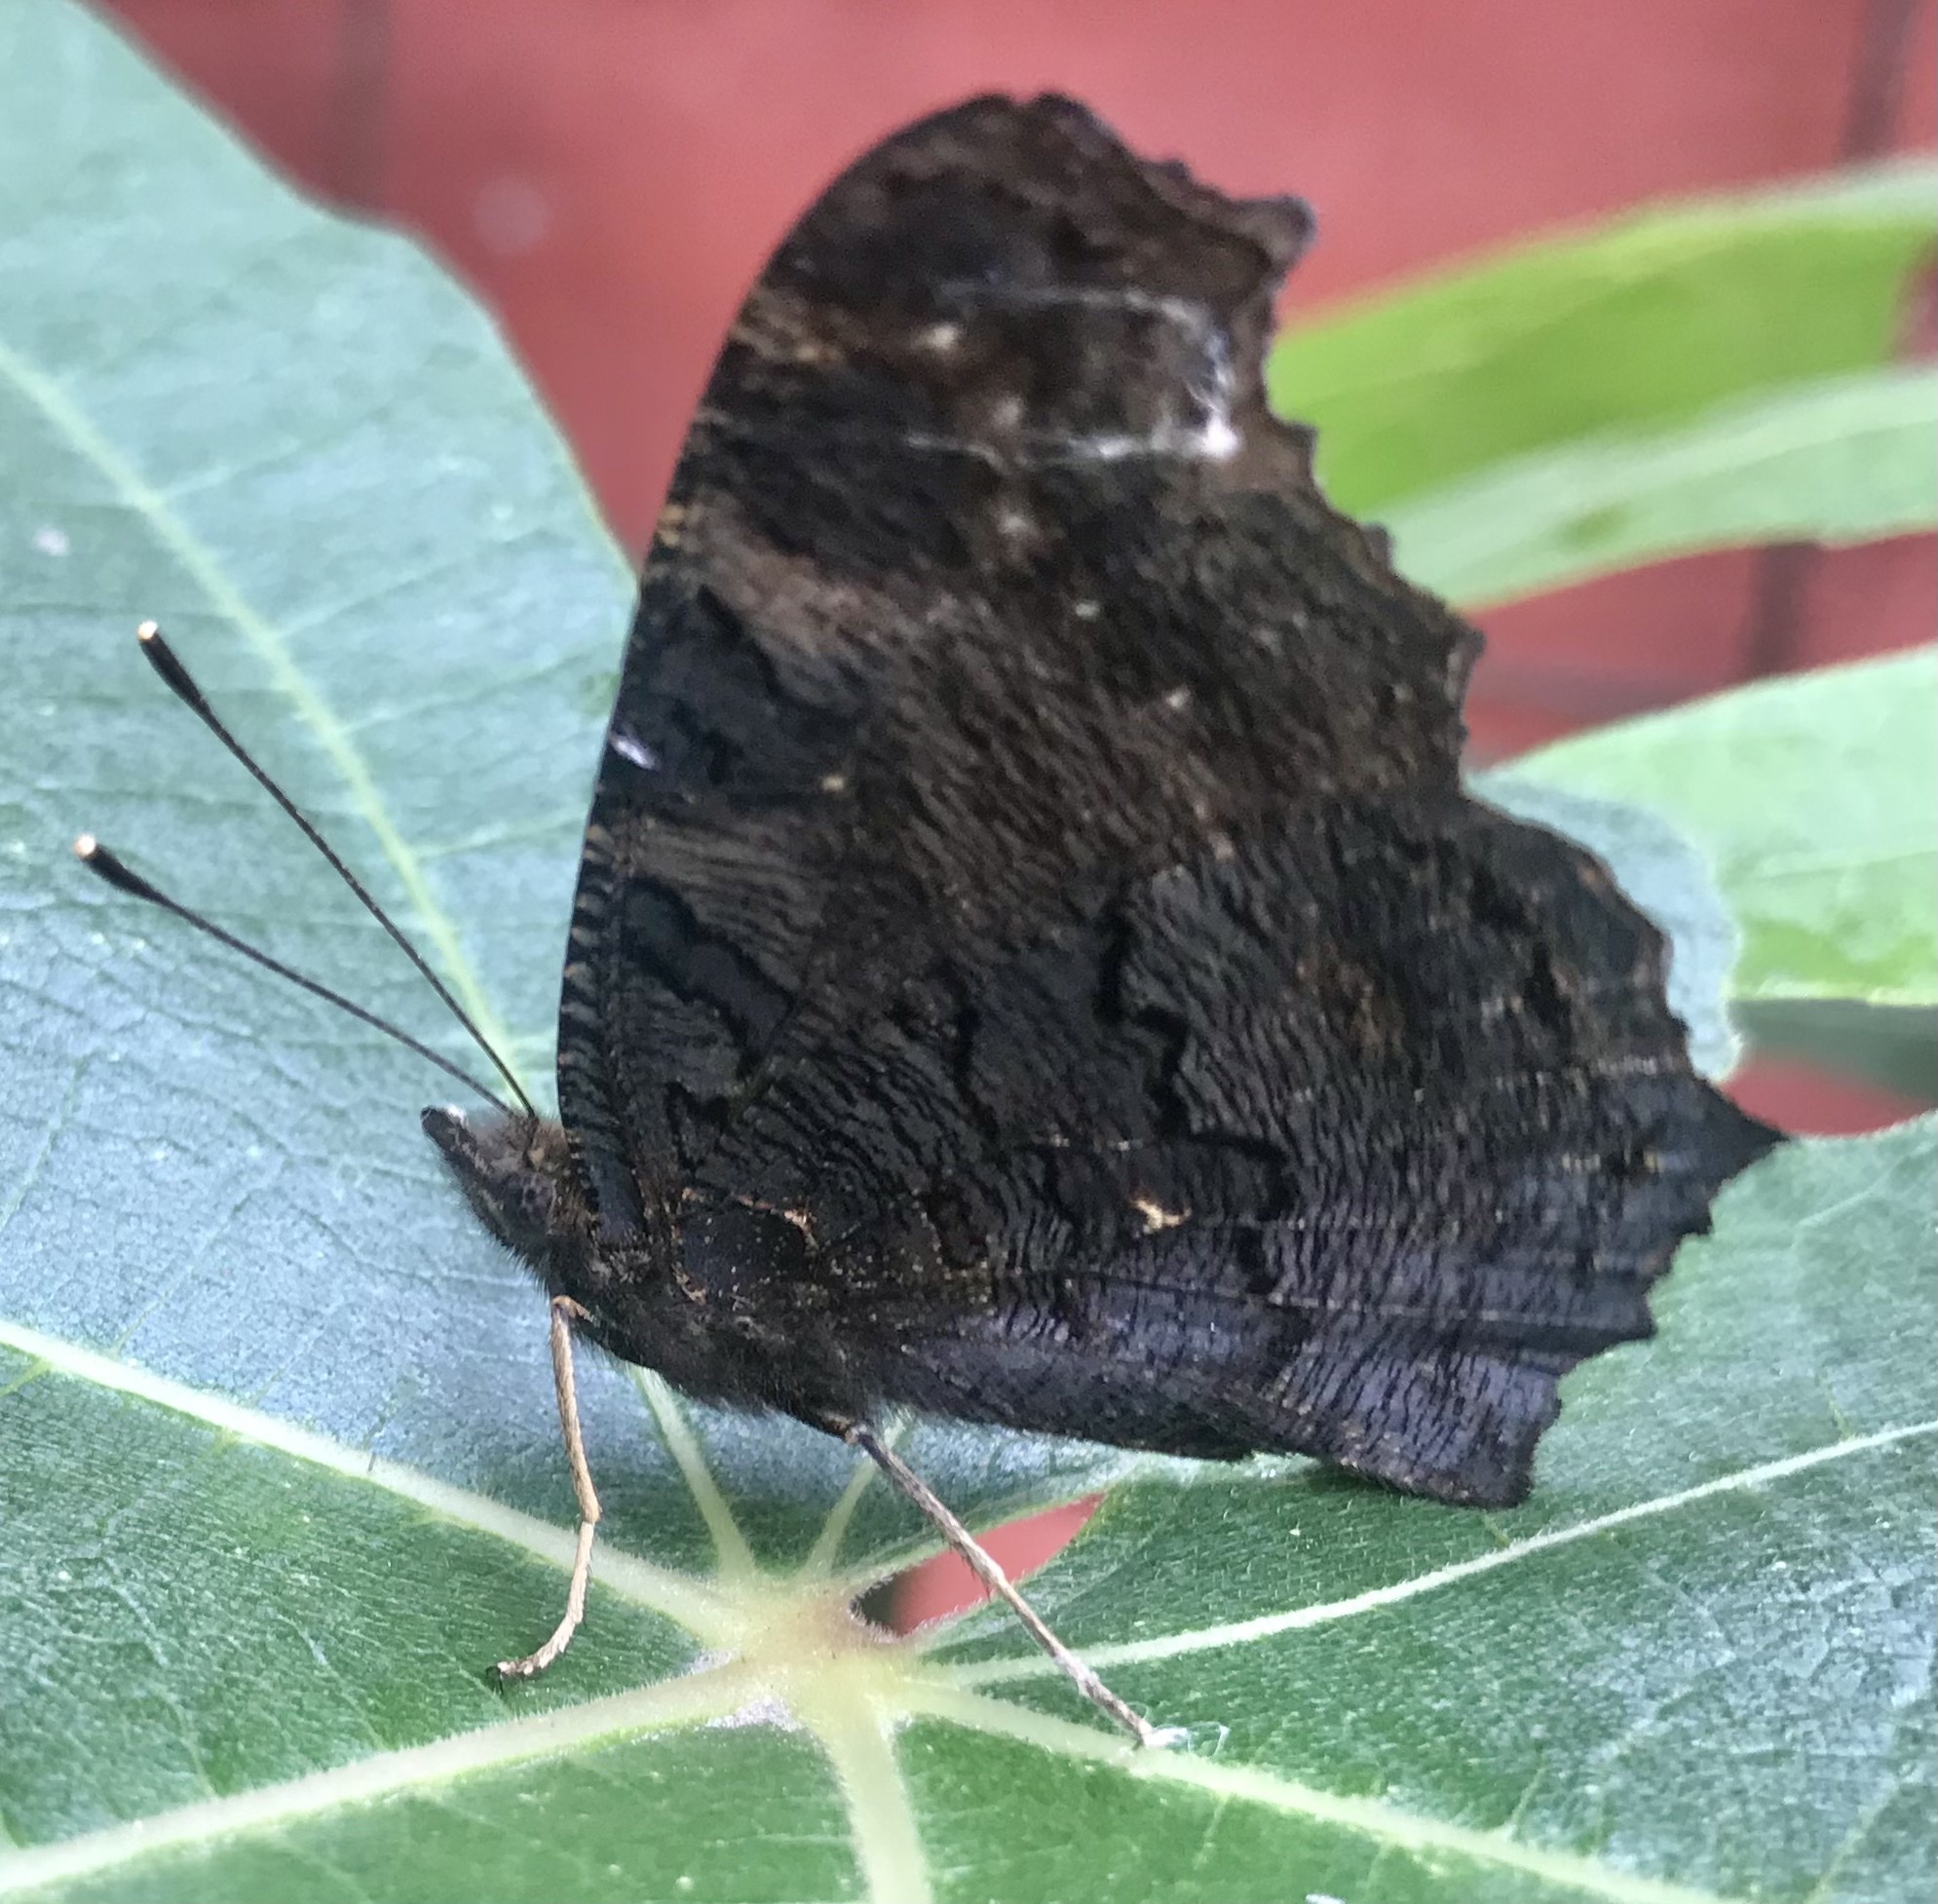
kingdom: Animalia
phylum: Arthropoda
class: Insecta
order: Lepidoptera
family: Nymphalidae
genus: Aglais
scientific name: Aglais io
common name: Peacock
